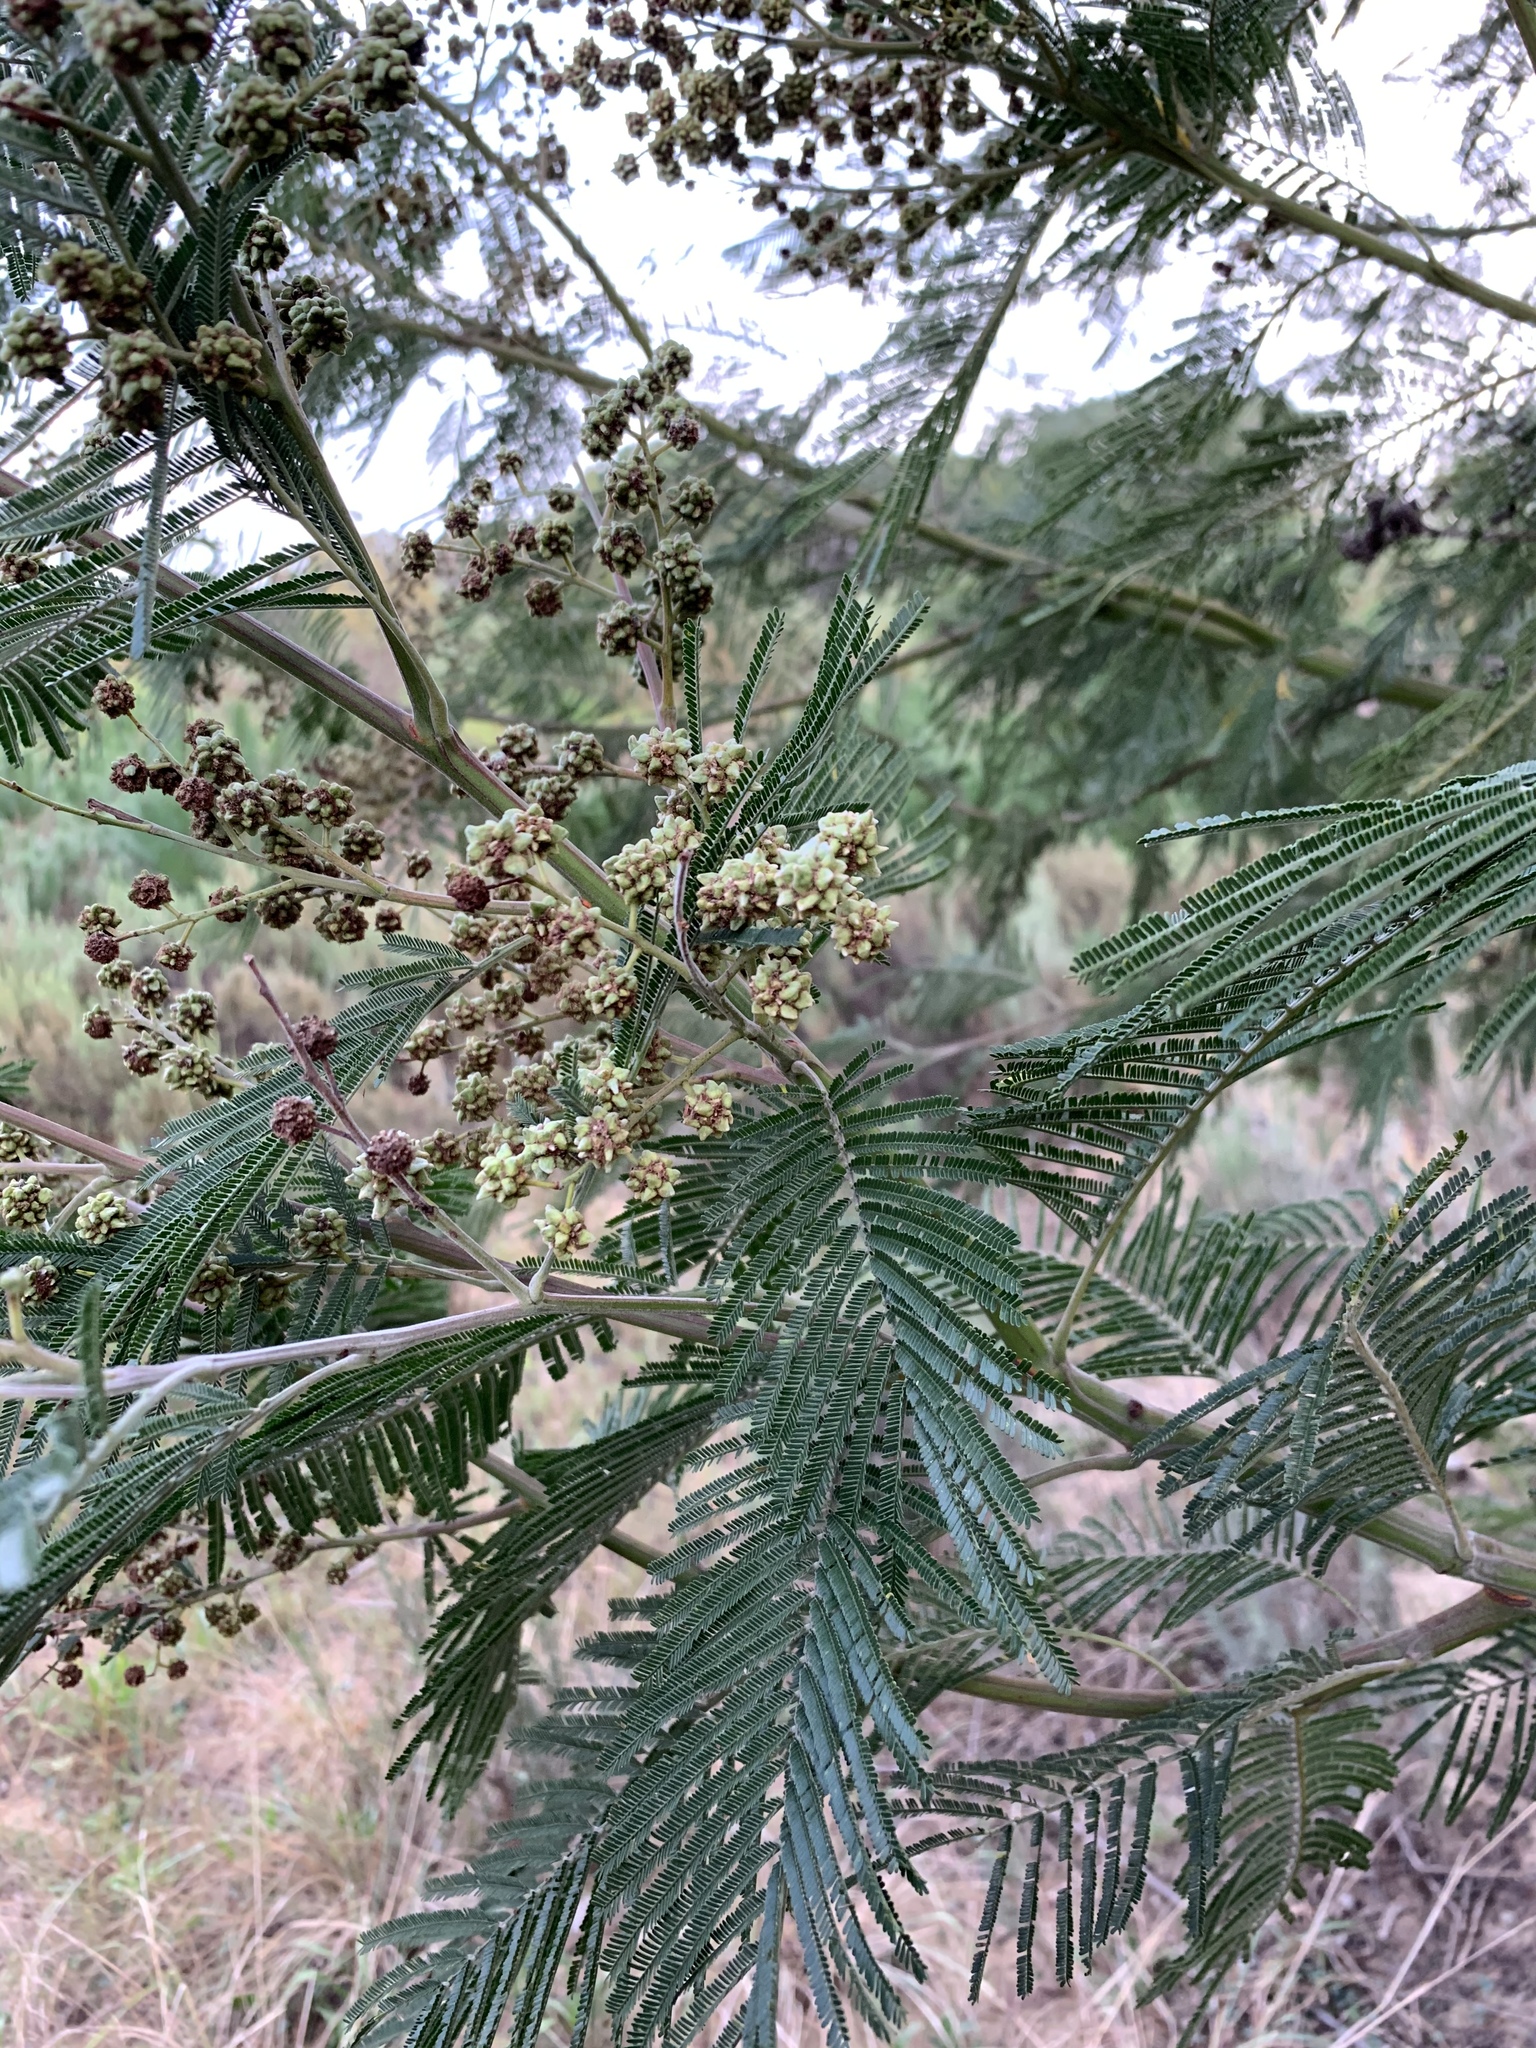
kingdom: Plantae
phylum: Tracheophyta
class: Magnoliopsida
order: Fabales
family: Fabaceae
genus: Acacia
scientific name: Acacia mearnsii
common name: Black wattle
